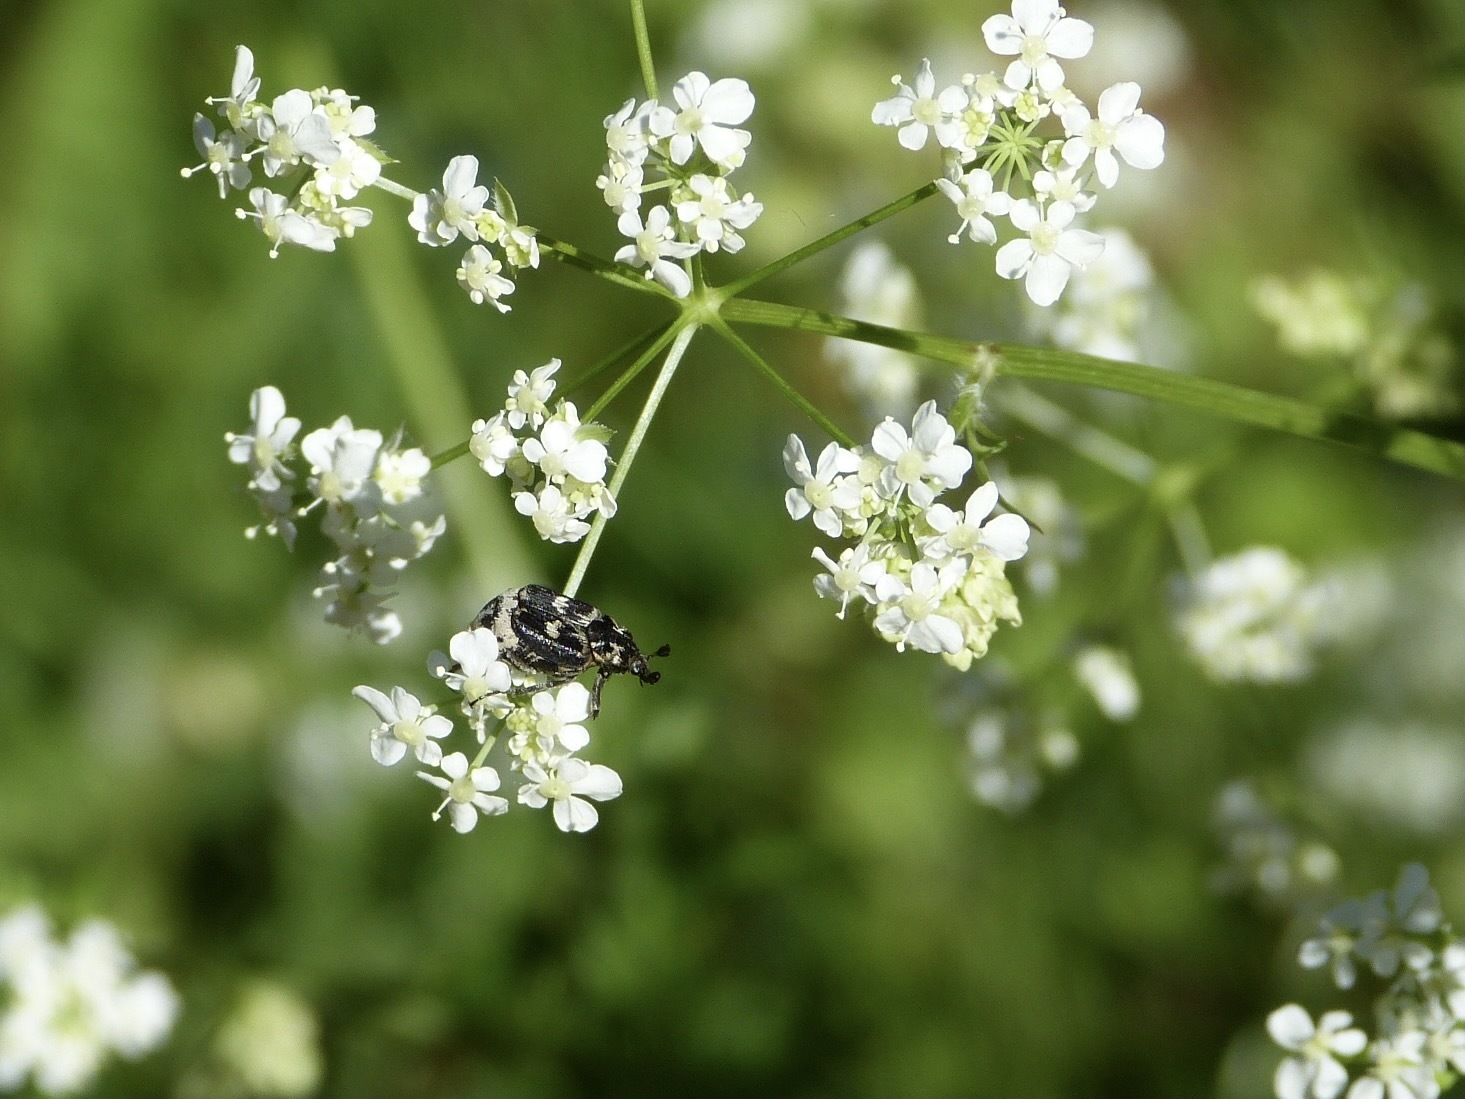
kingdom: Animalia
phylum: Arthropoda
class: Insecta
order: Coleoptera
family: Scarabaeidae
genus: Valgus
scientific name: Valgus hemipterus
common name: Bug flower chafer
